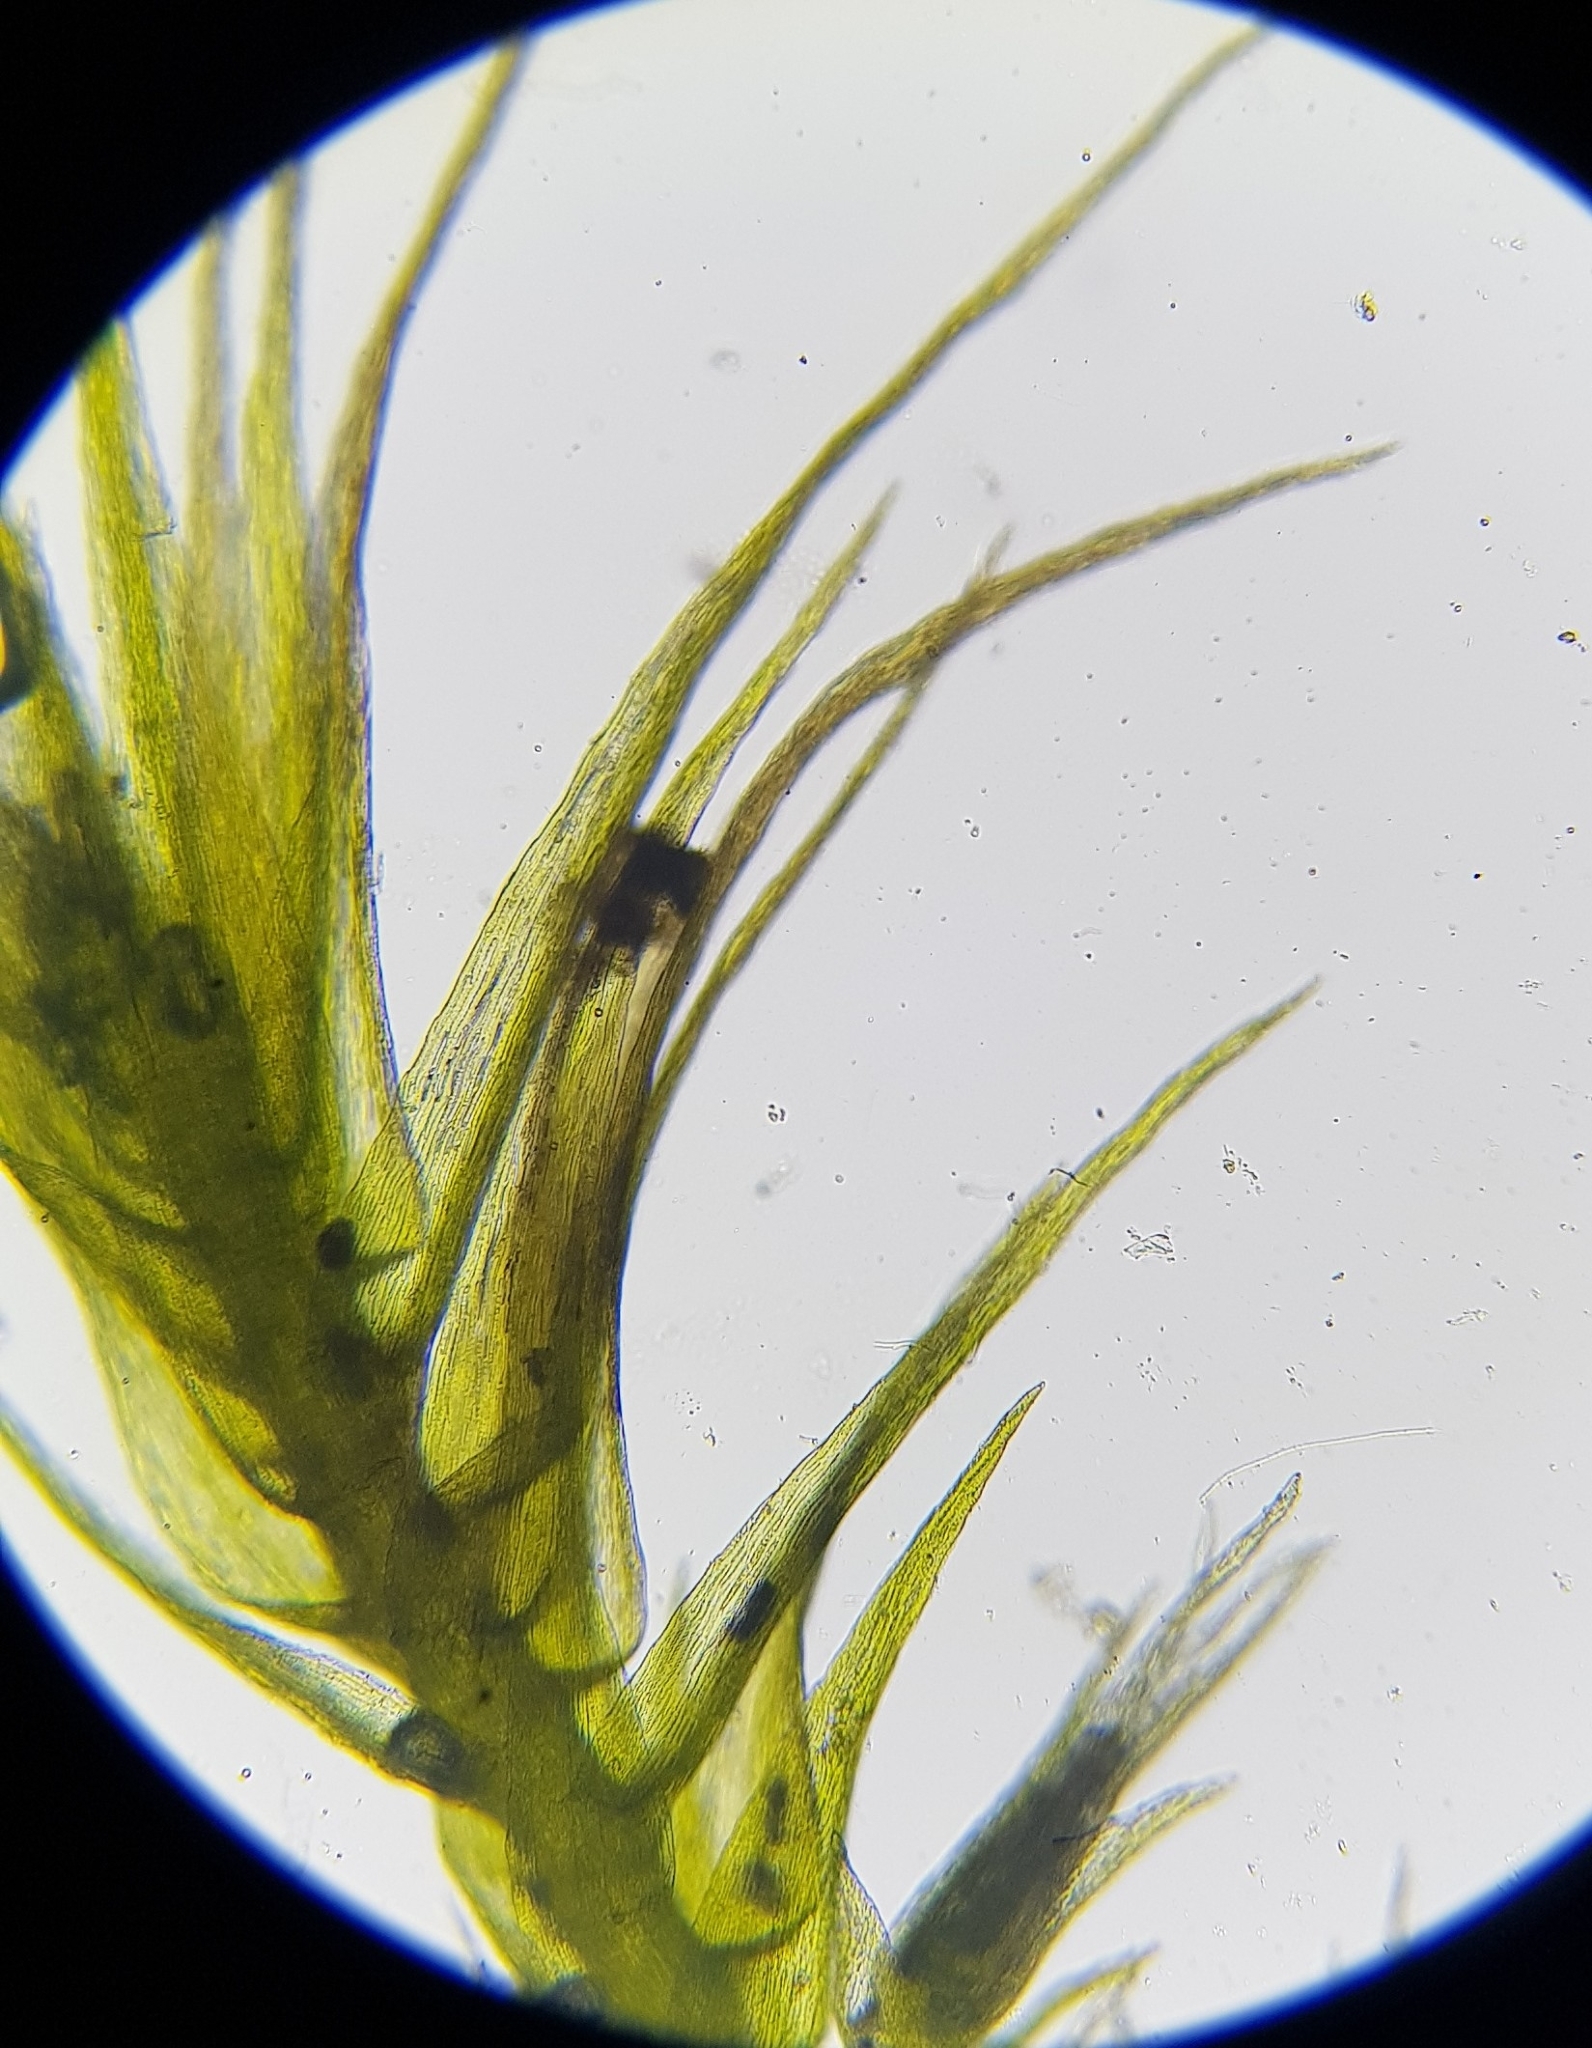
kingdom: Plantae
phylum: Bryophyta
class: Bryopsida
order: Hypnales
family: Brachytheciaceae
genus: Rhynchostegiella
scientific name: Rhynchostegiella tenella
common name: Tender feather-moss
